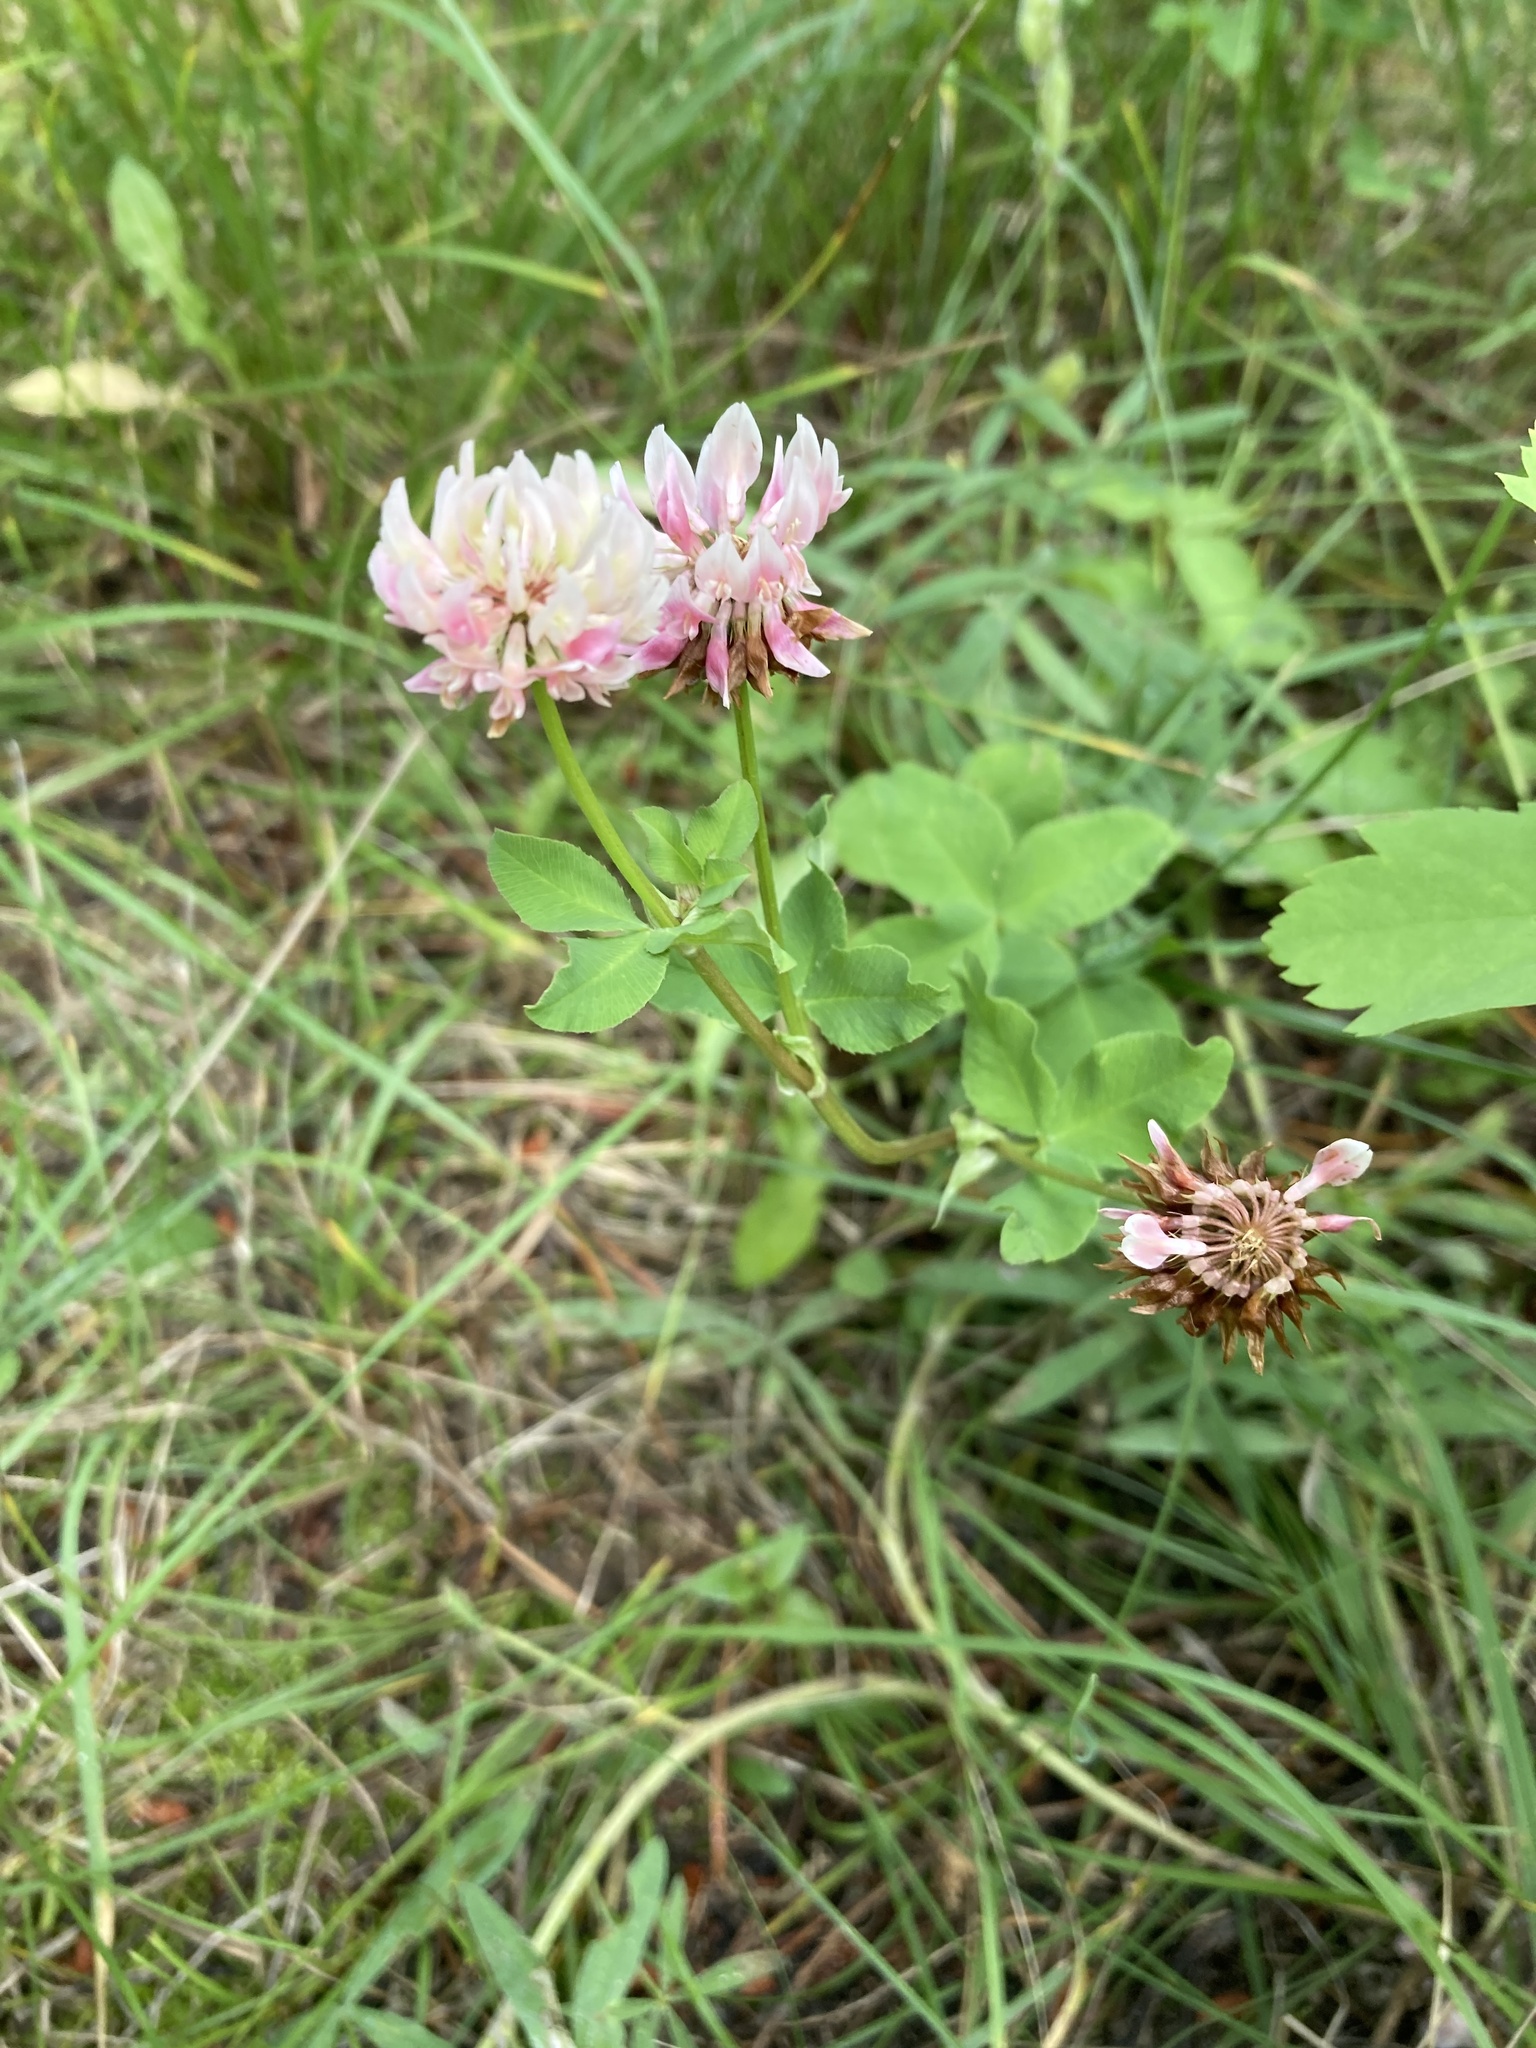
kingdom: Plantae
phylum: Tracheophyta
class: Magnoliopsida
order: Fabales
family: Fabaceae
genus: Trifolium
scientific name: Trifolium hybridum
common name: Alsike clover
